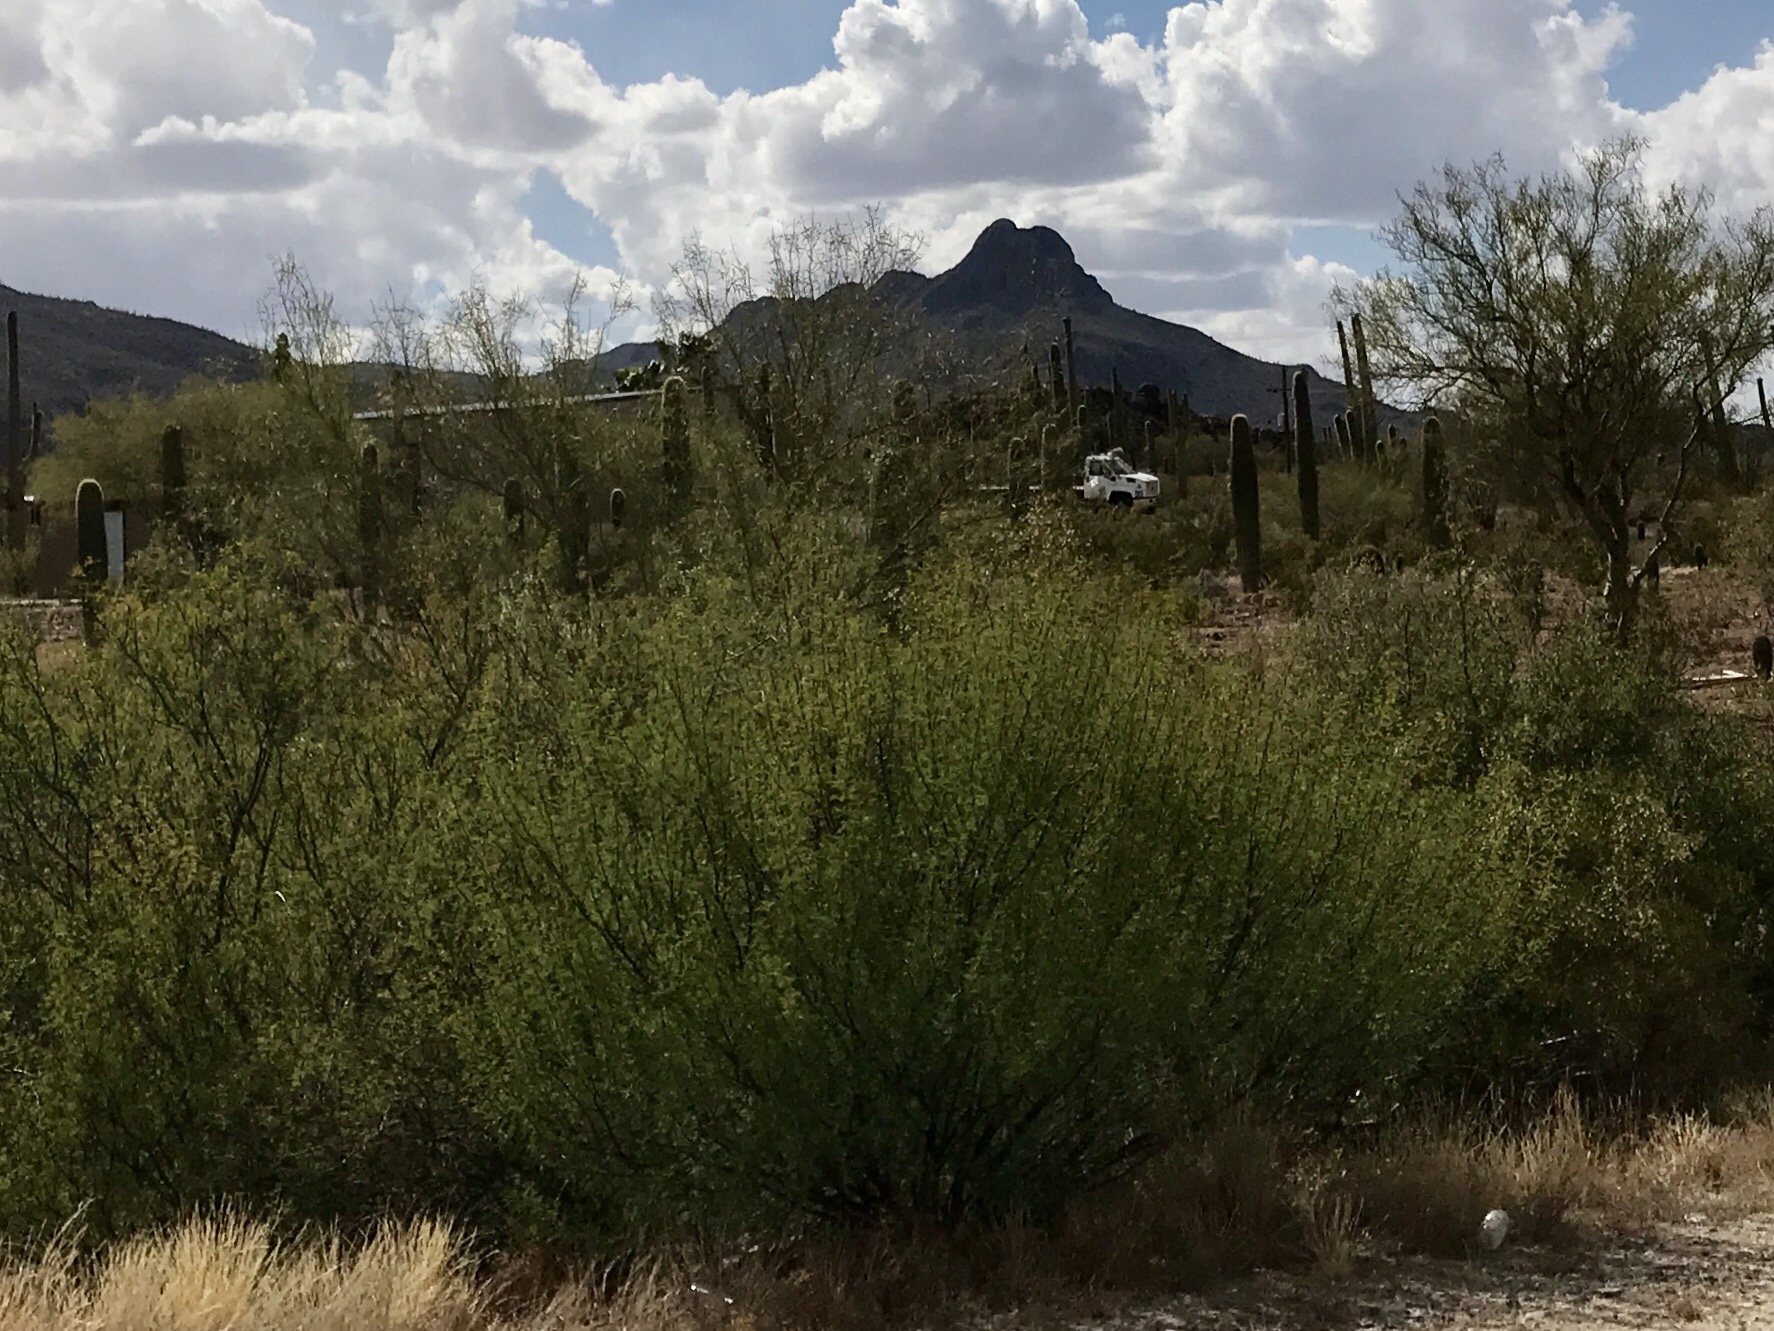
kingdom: Plantae
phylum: Tracheophyta
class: Magnoliopsida
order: Zygophyllales
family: Zygophyllaceae
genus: Larrea
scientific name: Larrea tridentata
